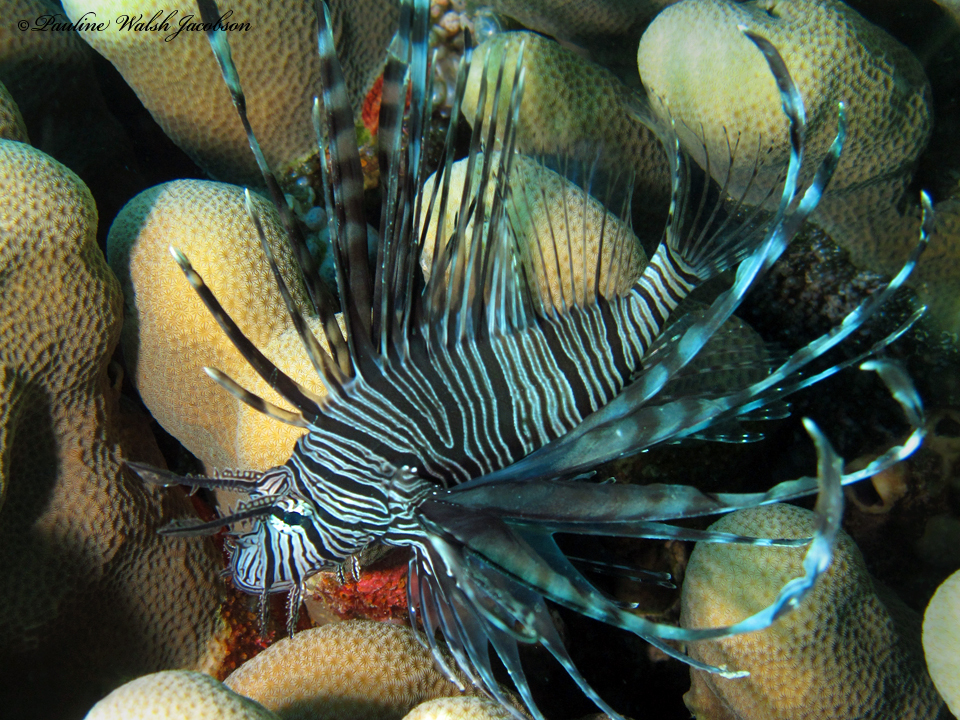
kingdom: Animalia
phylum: Chordata
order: Scorpaeniformes
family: Scorpaenidae
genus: Pterois
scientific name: Pterois russelii
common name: Plaintail firefish
